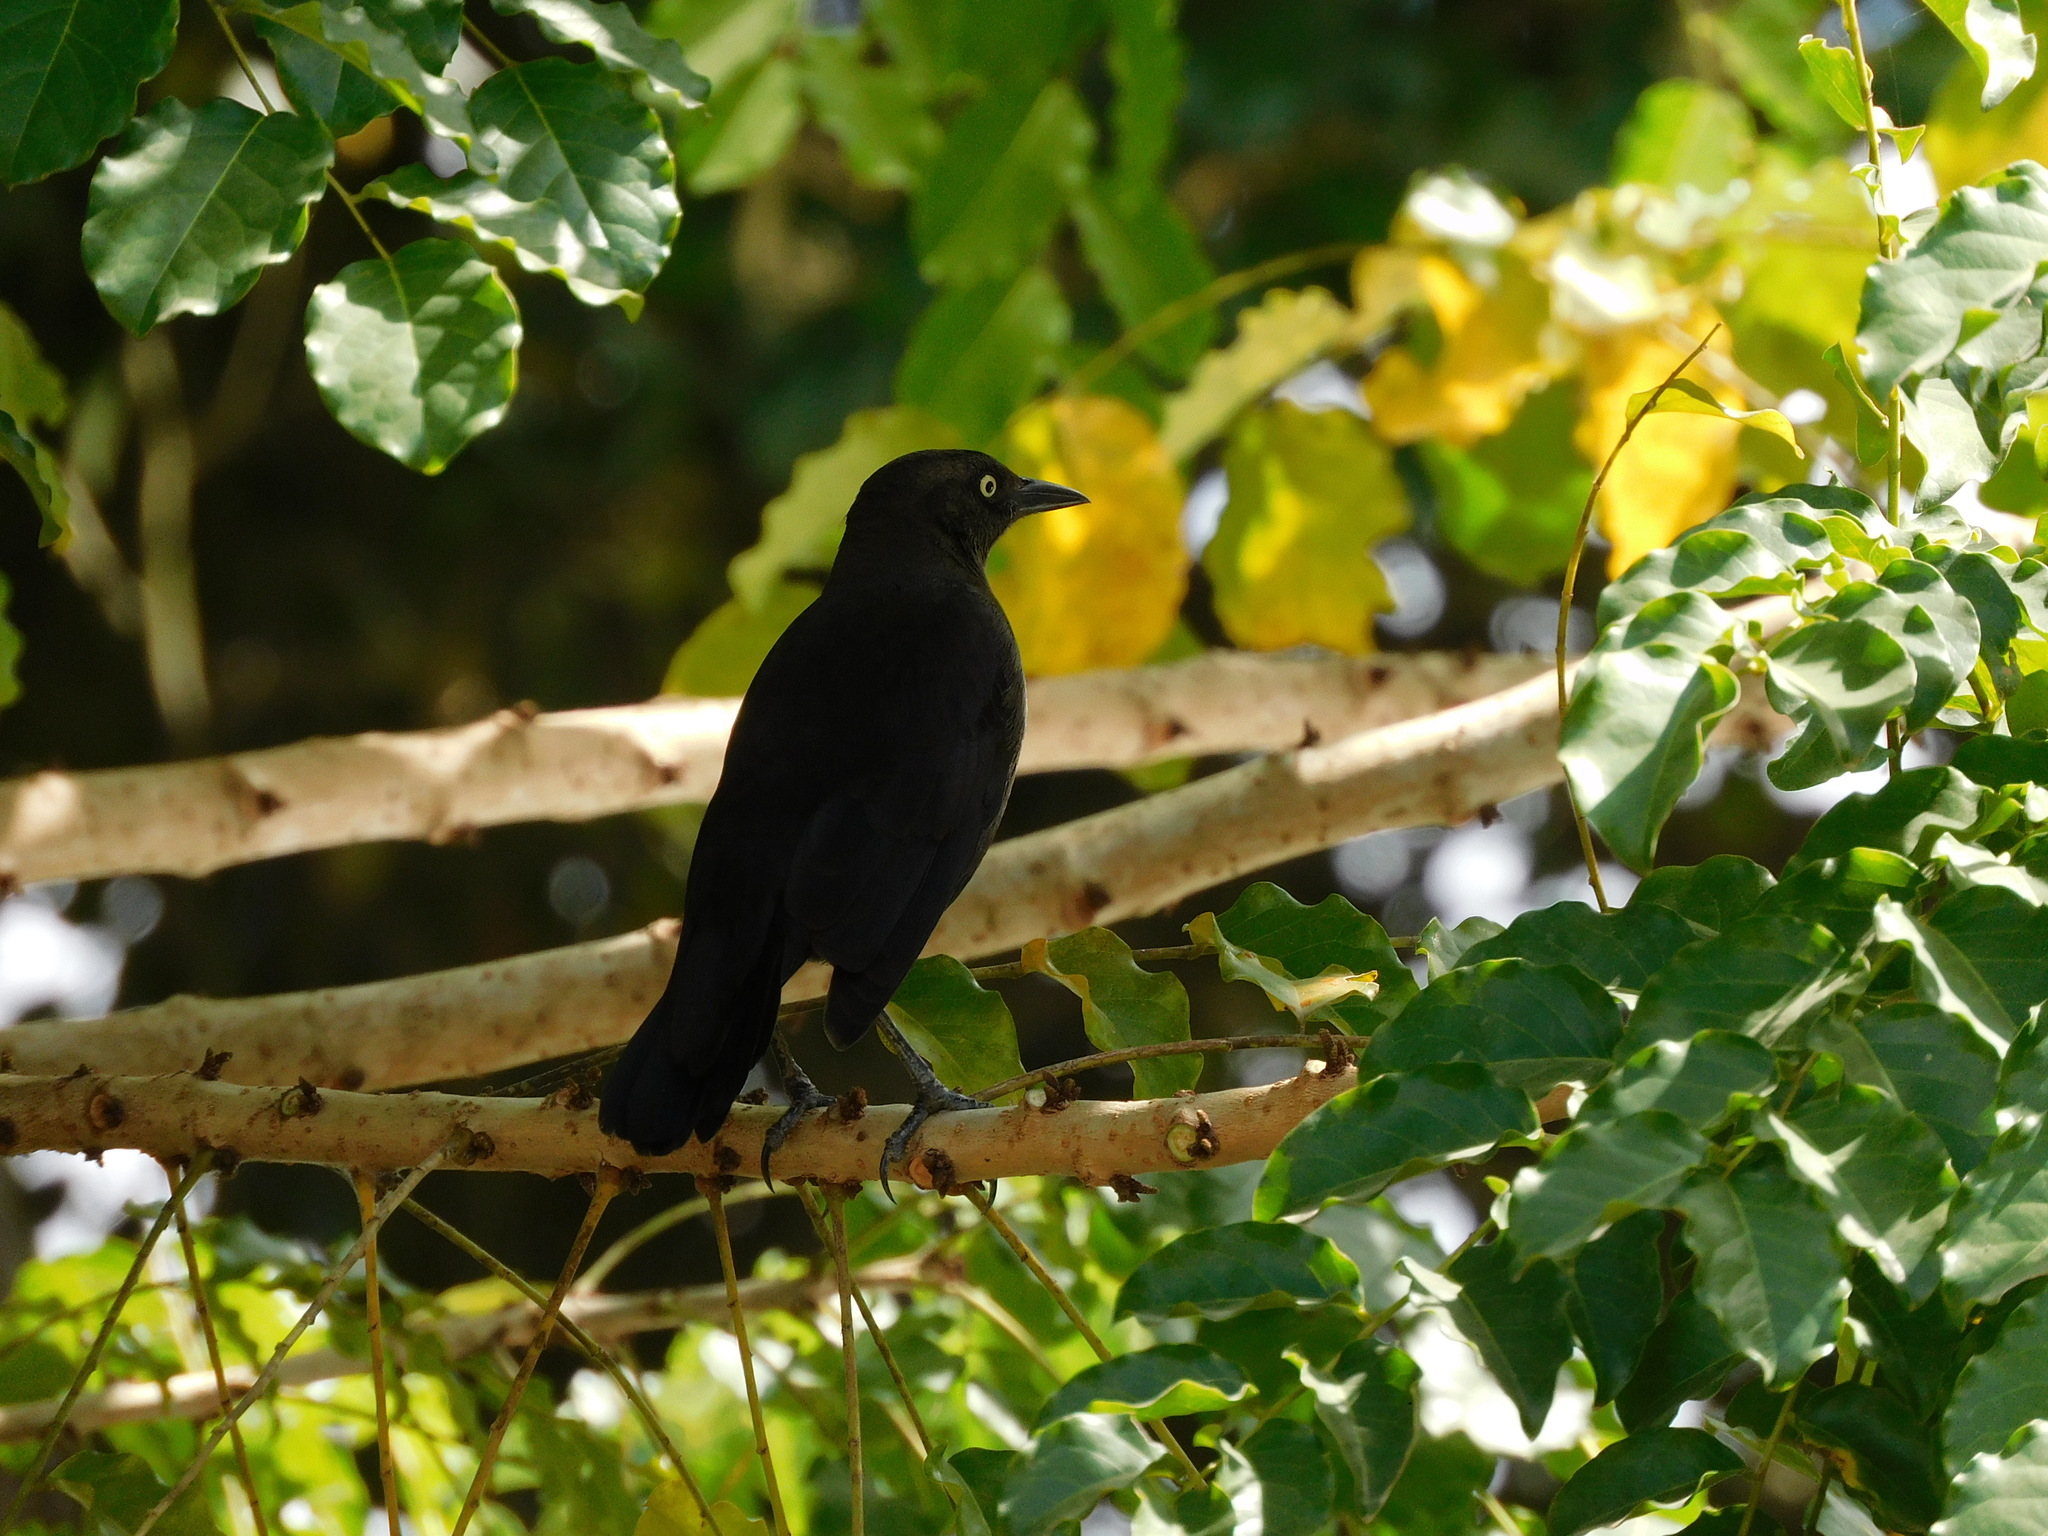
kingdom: Animalia
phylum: Chordata
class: Aves
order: Passeriformes
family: Icteridae
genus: Quiscalus
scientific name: Quiscalus lugubris
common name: Carib grackle
